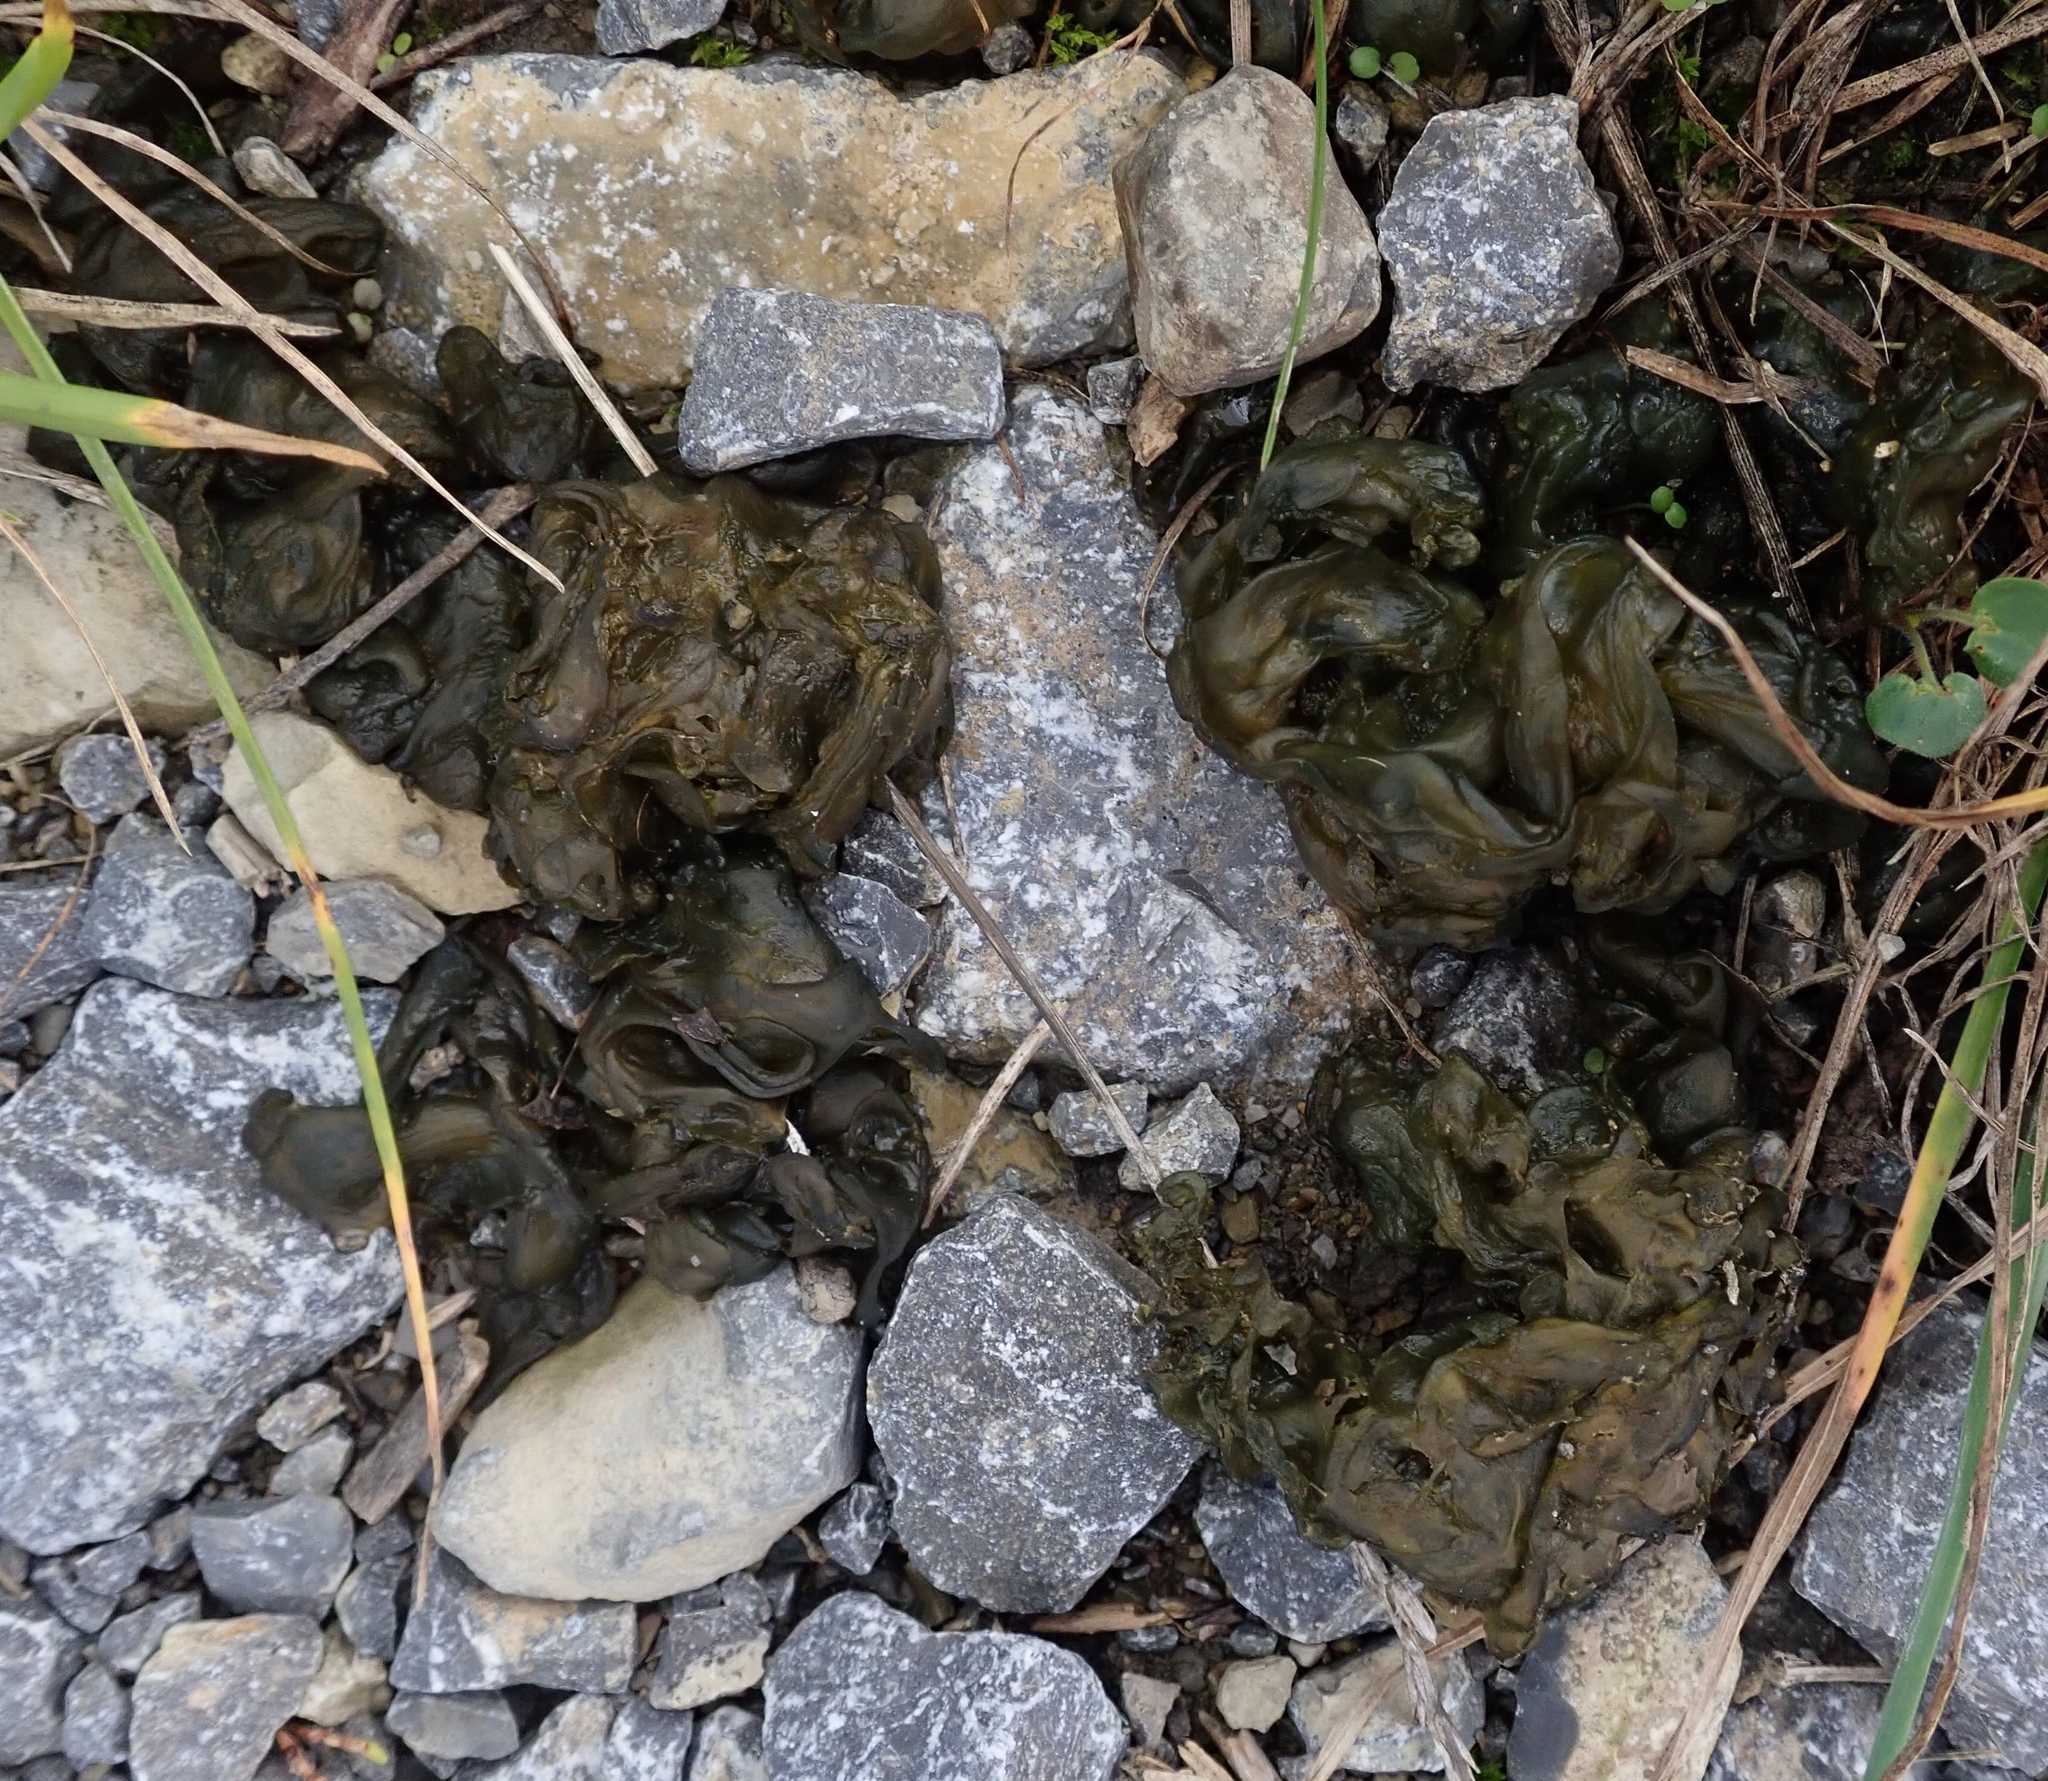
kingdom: Bacteria
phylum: Cyanobacteria
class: Cyanobacteriia
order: Cyanobacteriales
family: Nostocaceae
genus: Nostoc
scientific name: Nostoc commune
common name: Star jelly
